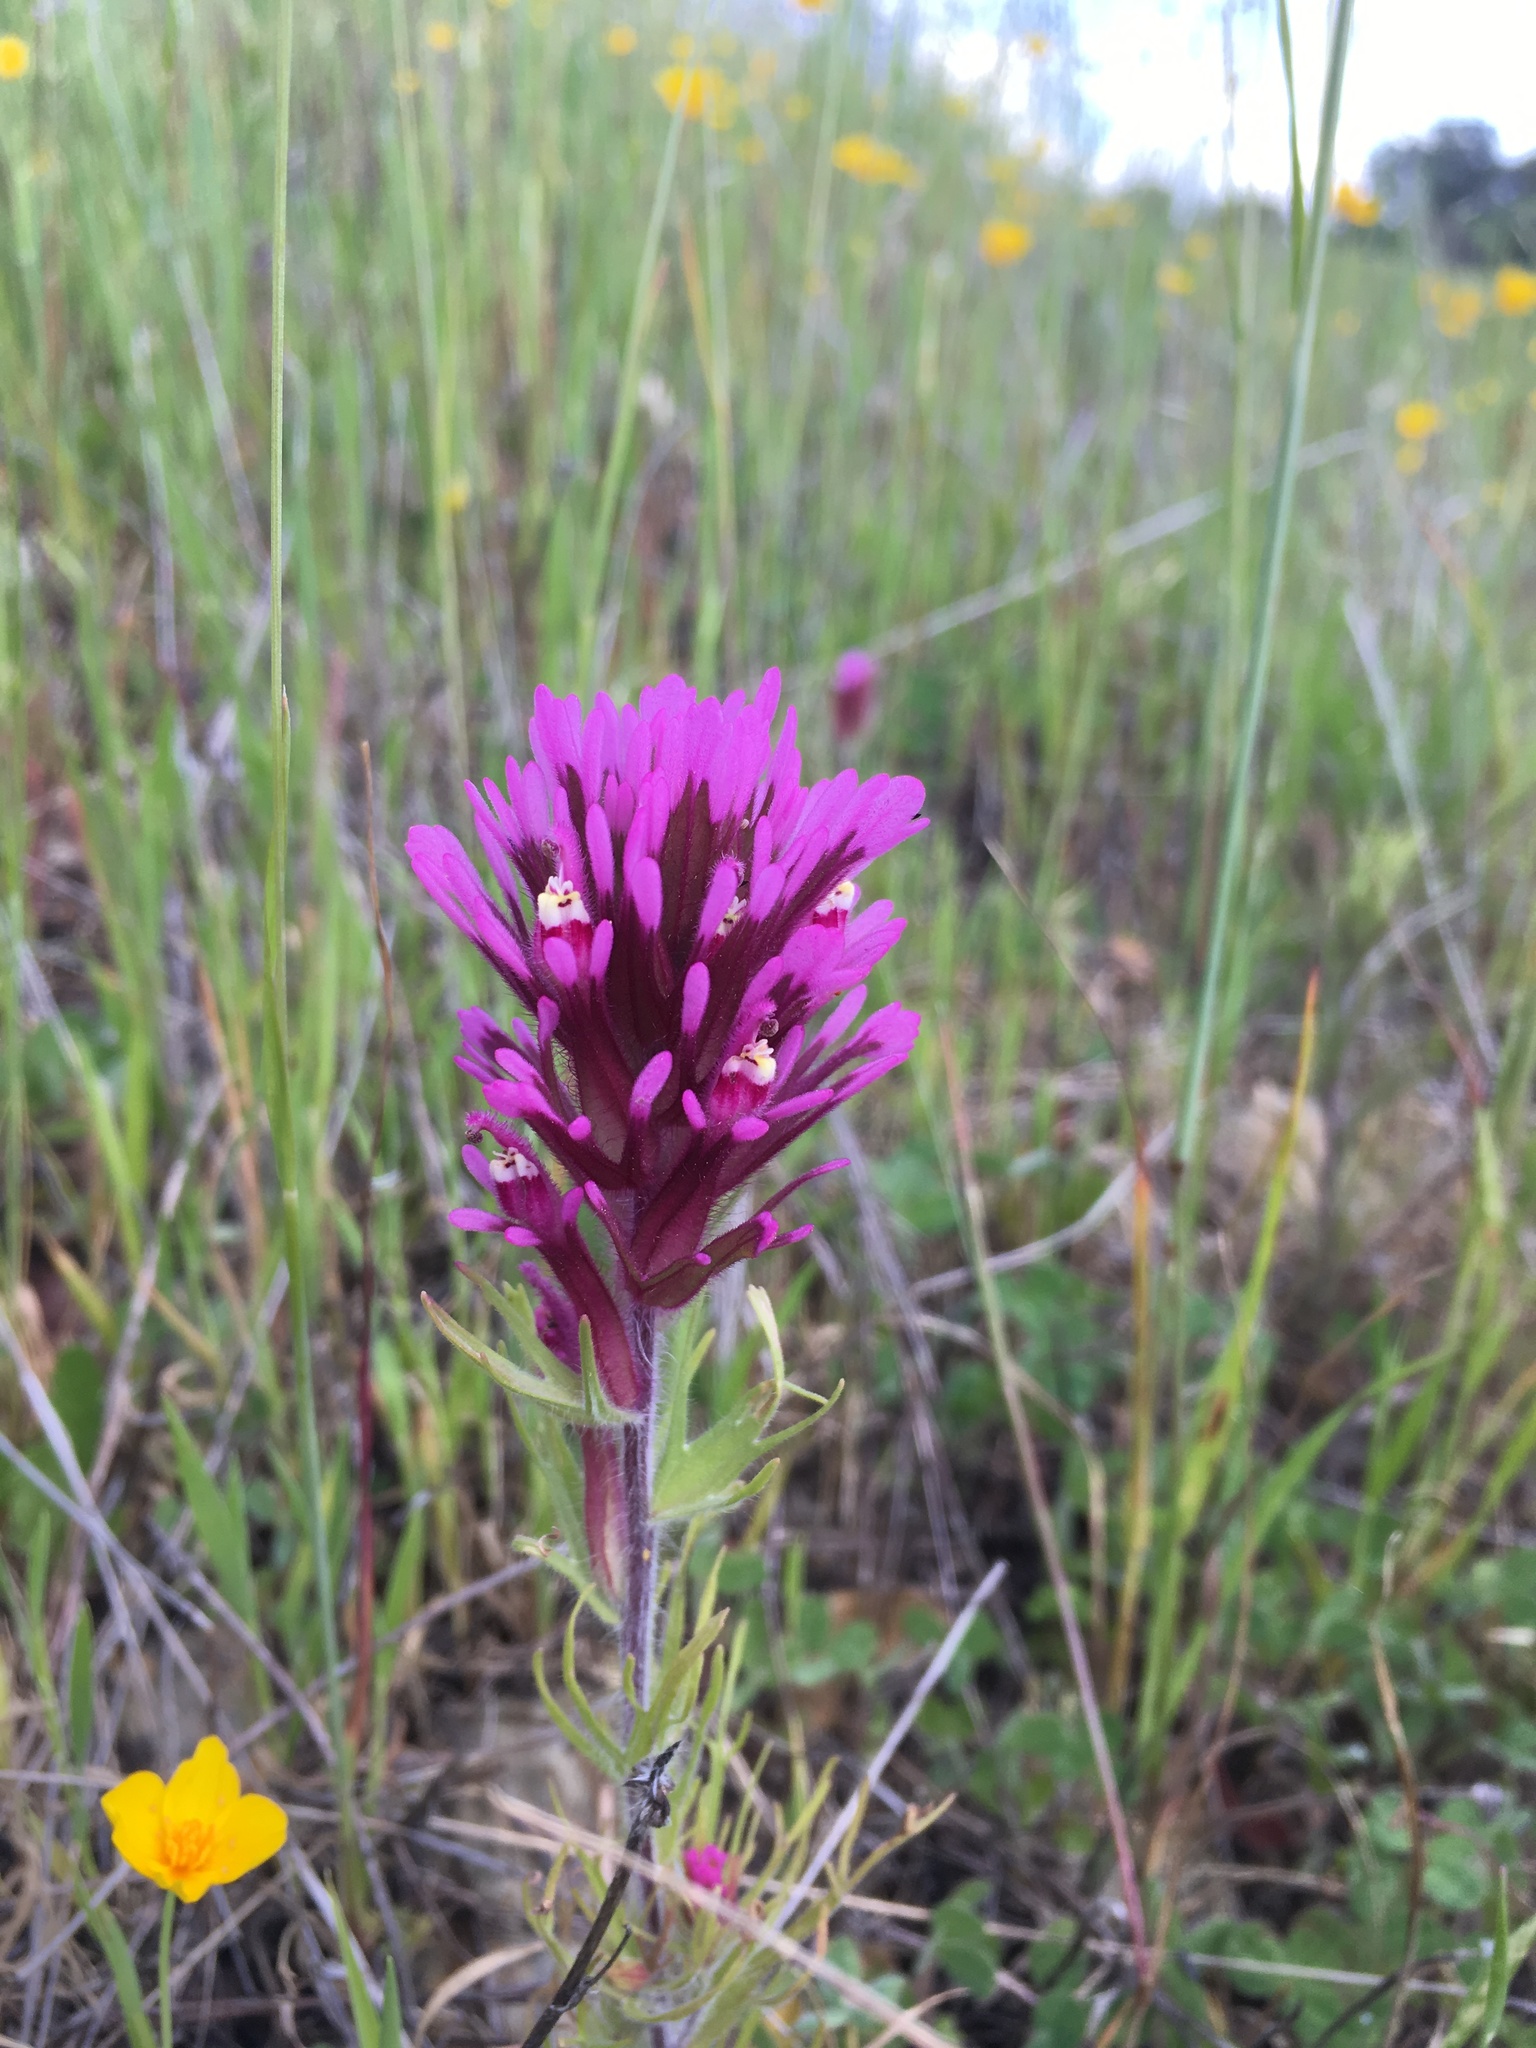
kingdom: Plantae
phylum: Tracheophyta
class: Magnoliopsida
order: Lamiales
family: Orobanchaceae
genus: Castilleja
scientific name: Castilleja exserta
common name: Purple owl-clover
